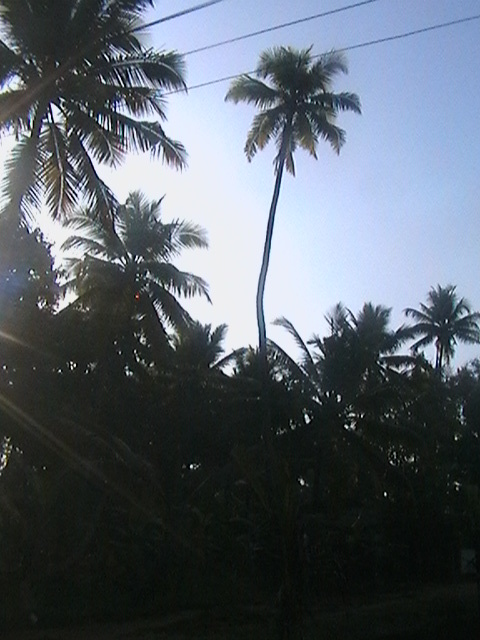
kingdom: Plantae
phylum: Tracheophyta
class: Liliopsida
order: Arecales
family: Arecaceae
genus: Cocos
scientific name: Cocos nucifera
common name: Coconut palm
